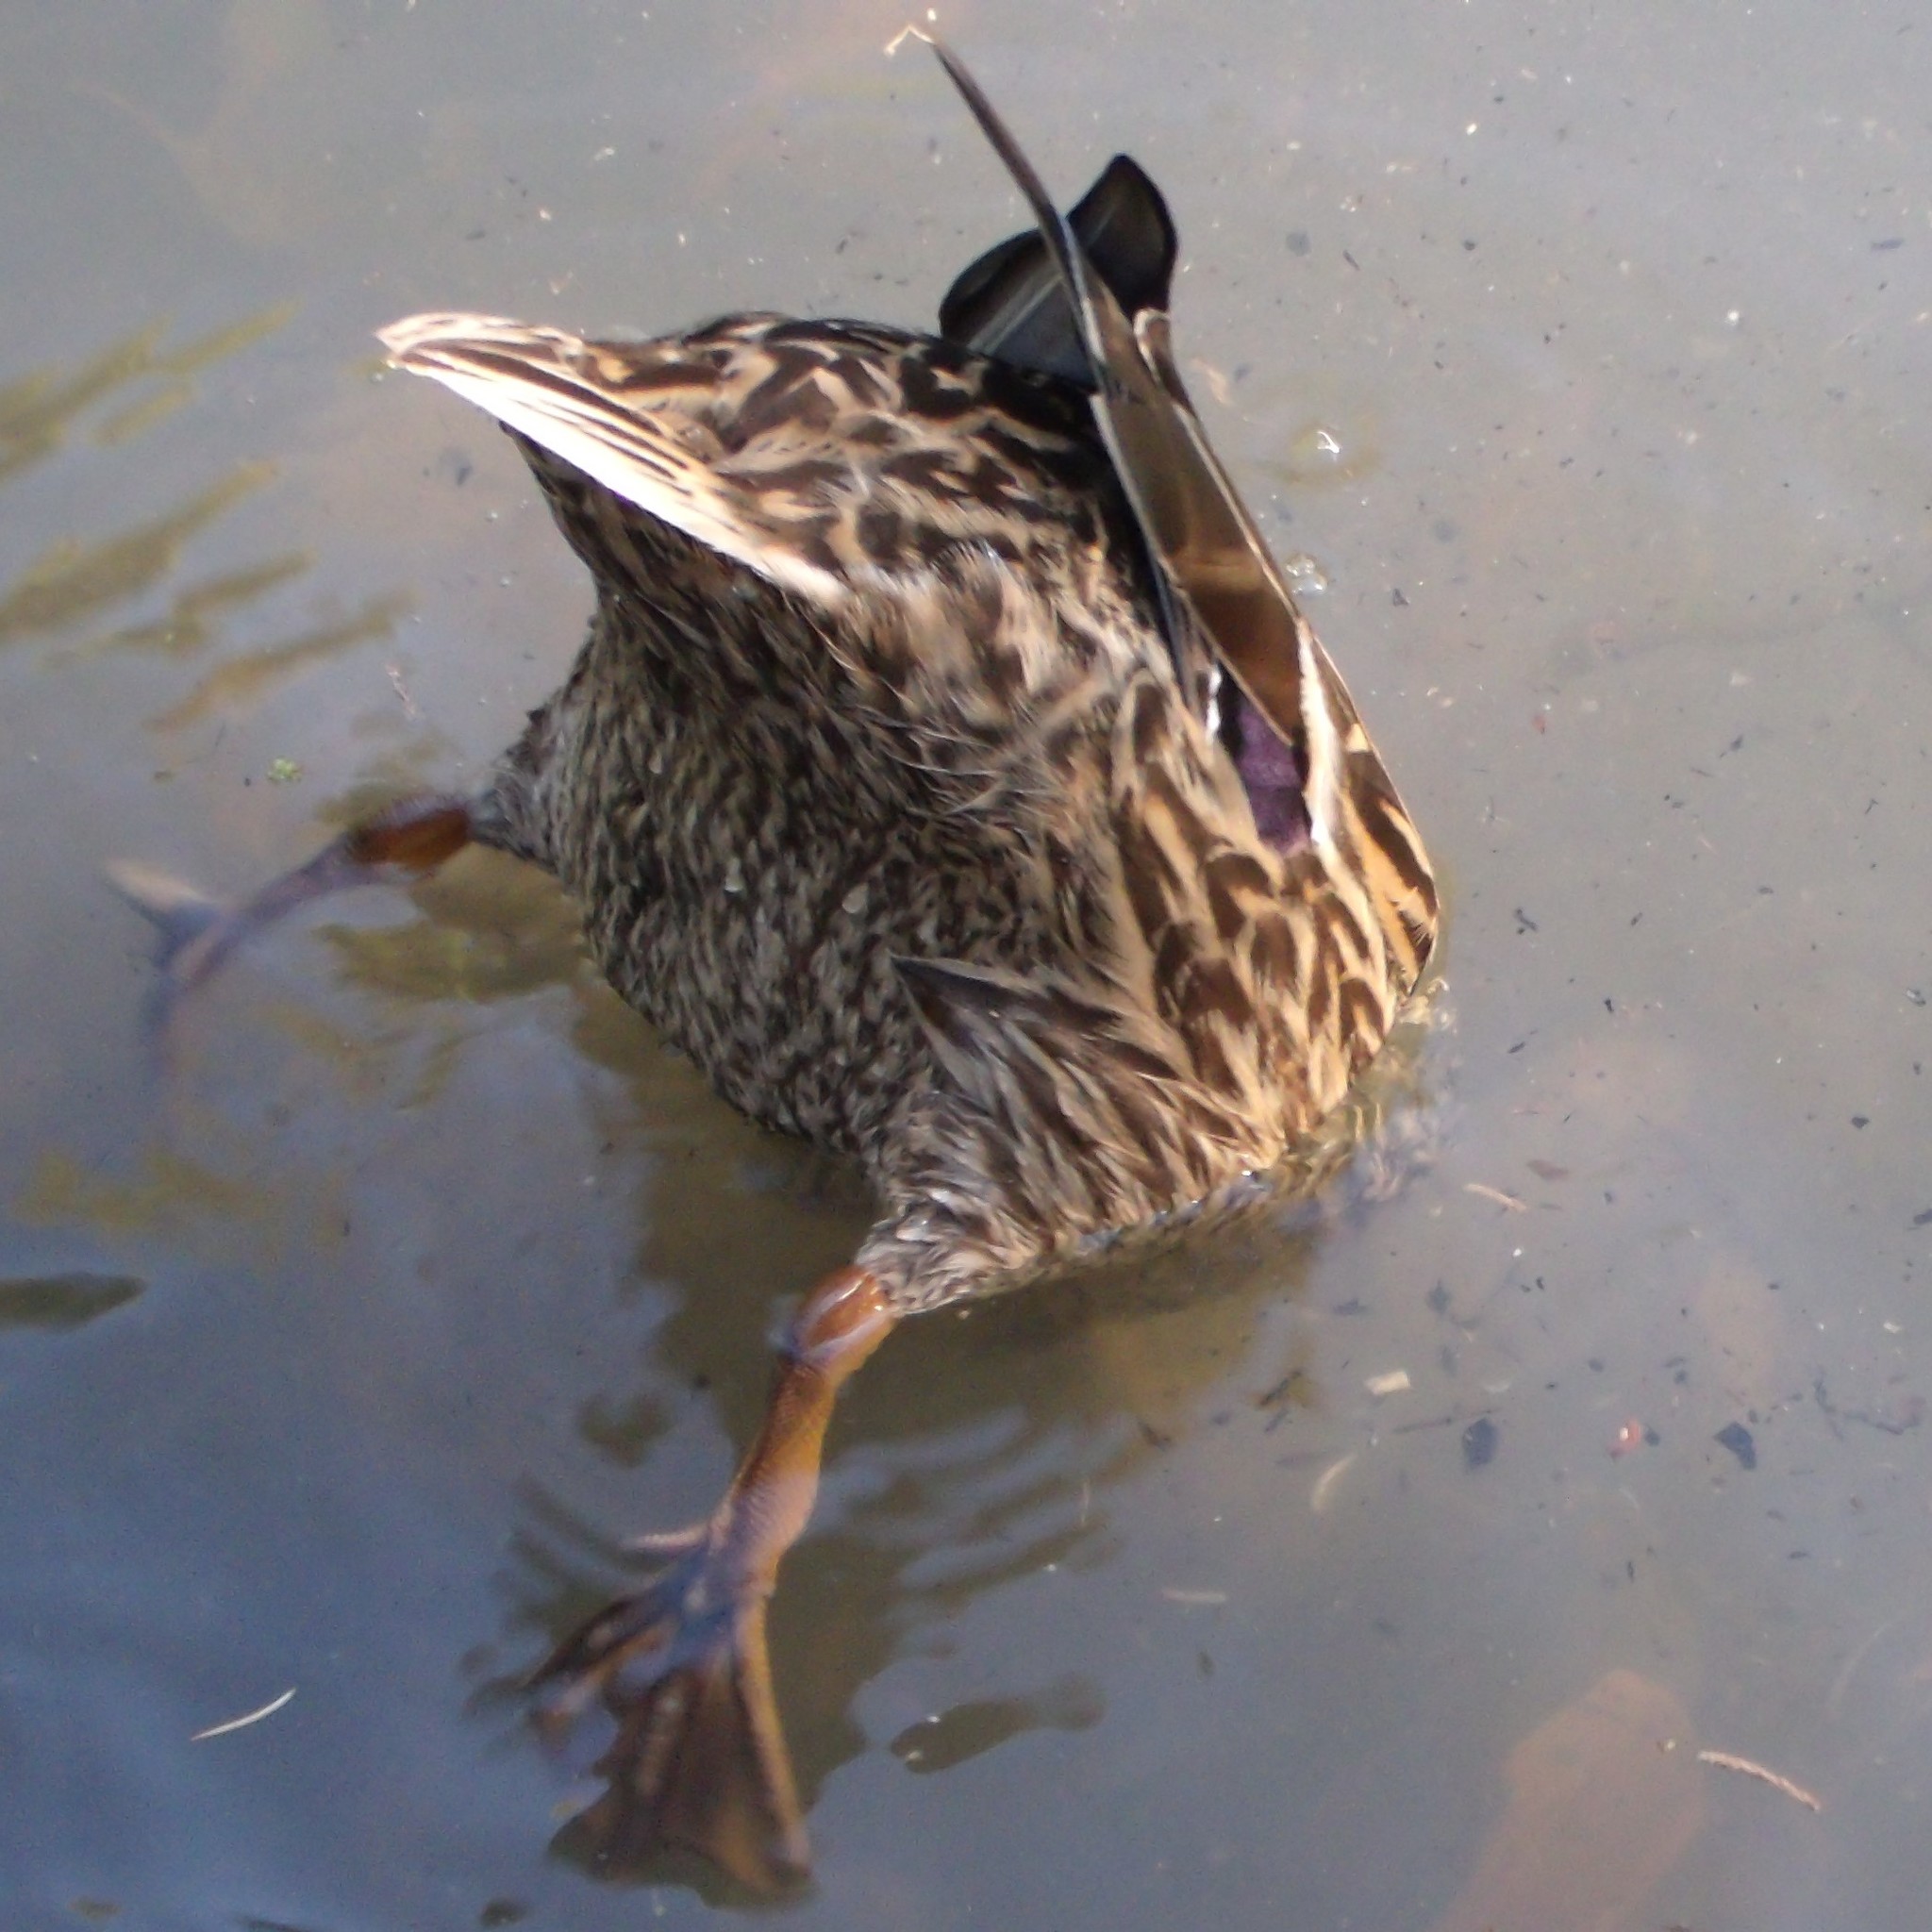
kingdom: Animalia
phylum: Chordata
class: Aves
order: Anseriformes
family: Anatidae
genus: Anas
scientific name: Anas platyrhynchos
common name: Mallard
